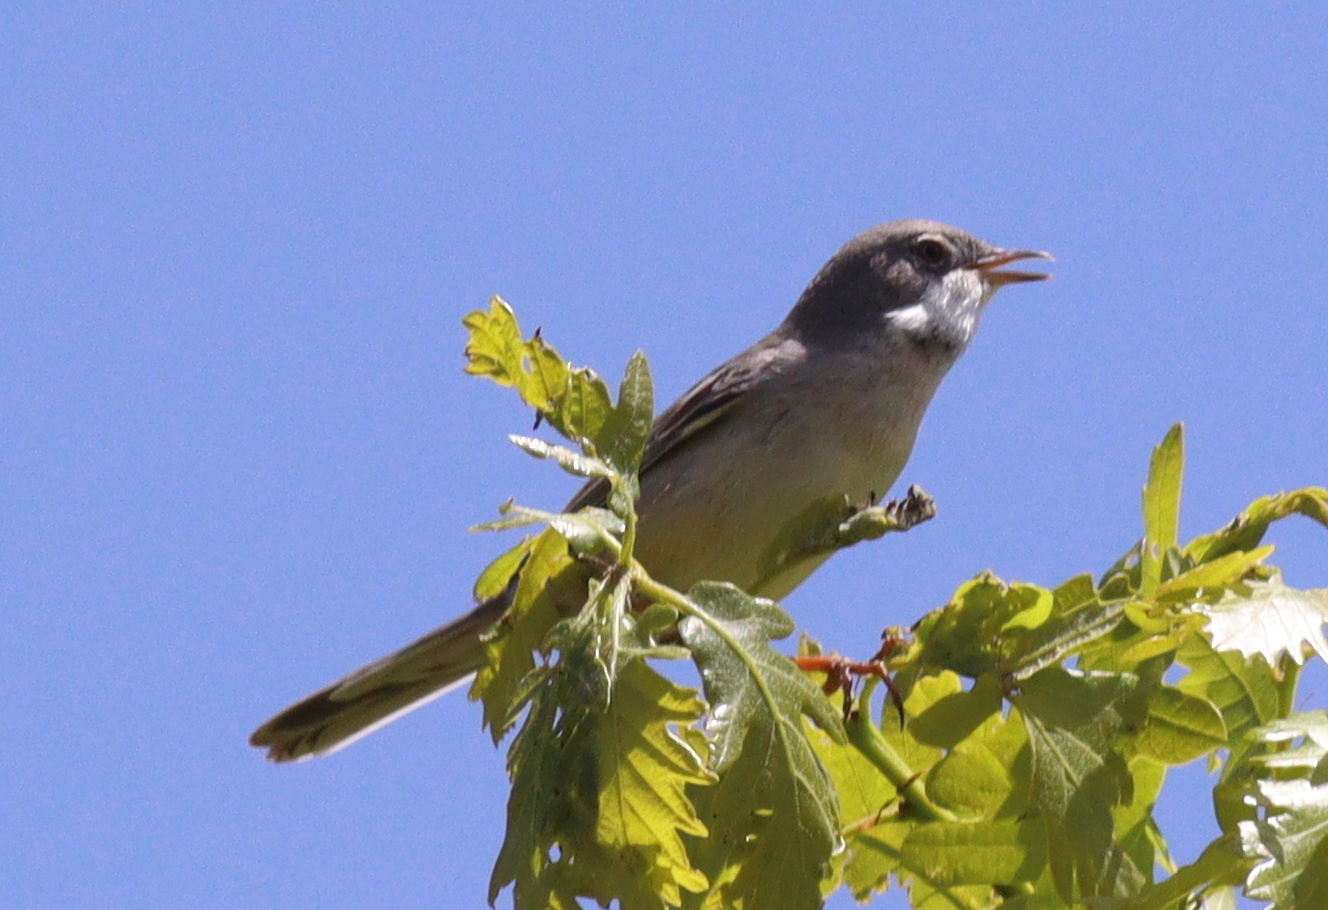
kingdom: Animalia
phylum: Chordata
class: Aves
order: Passeriformes
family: Sylviidae
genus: Sylvia
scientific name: Sylvia communis
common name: Common whitethroat
